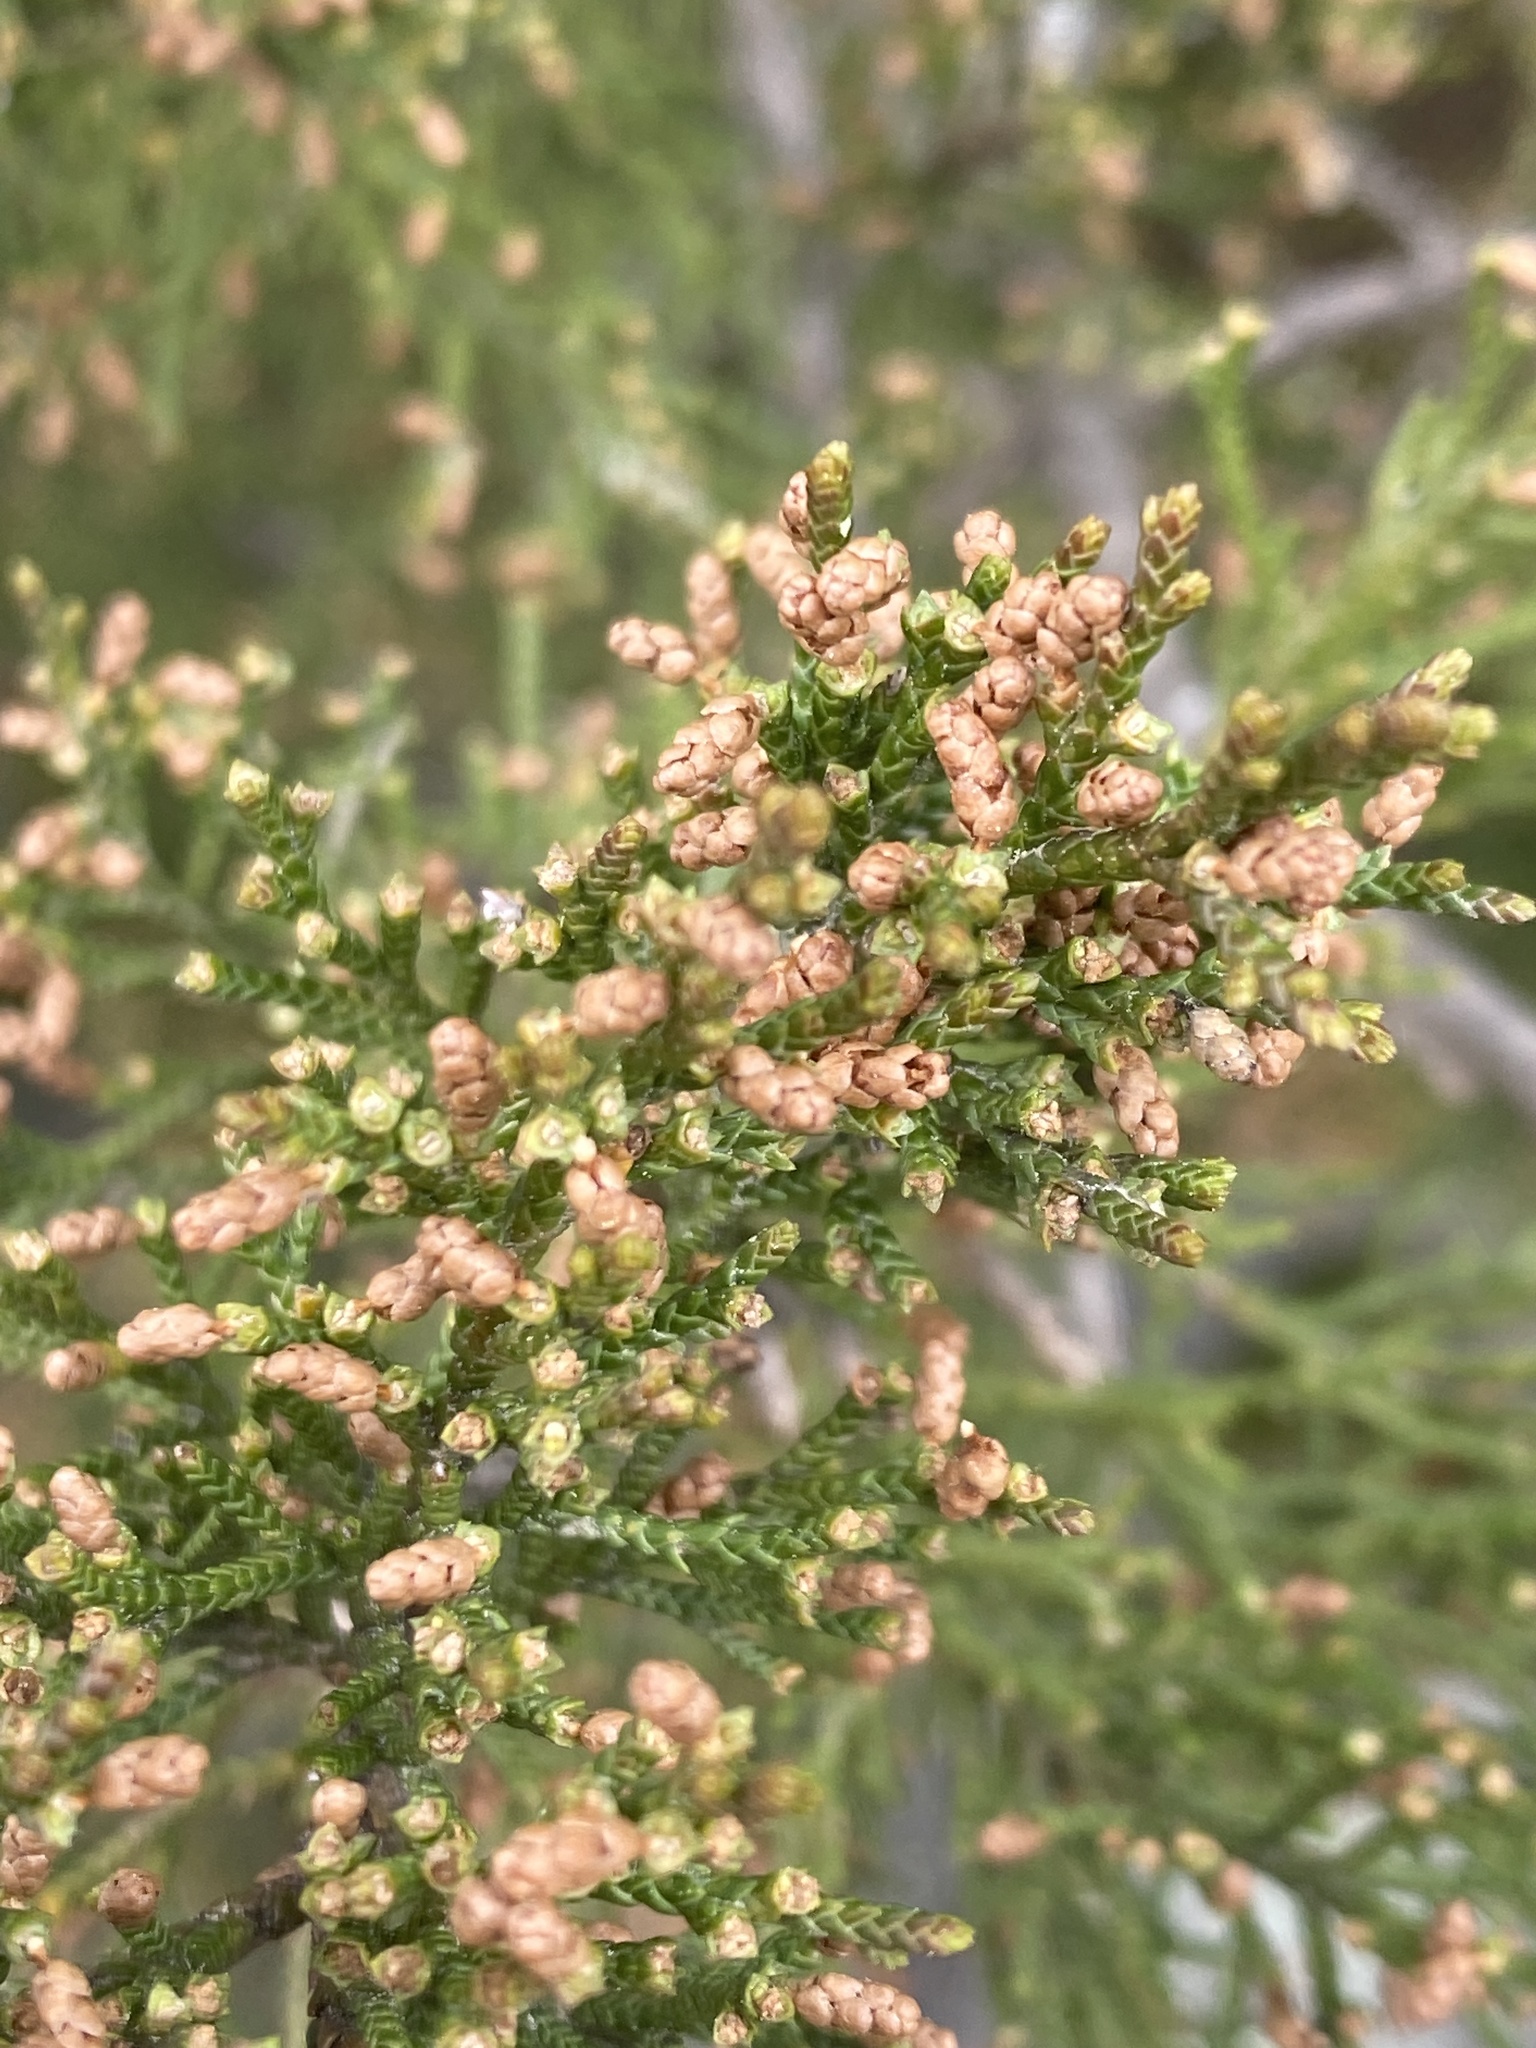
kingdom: Plantae
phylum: Tracheophyta
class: Pinopsida
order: Pinales
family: Cupressaceae
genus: Juniperus
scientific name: Juniperus virginiana
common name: Red juniper
